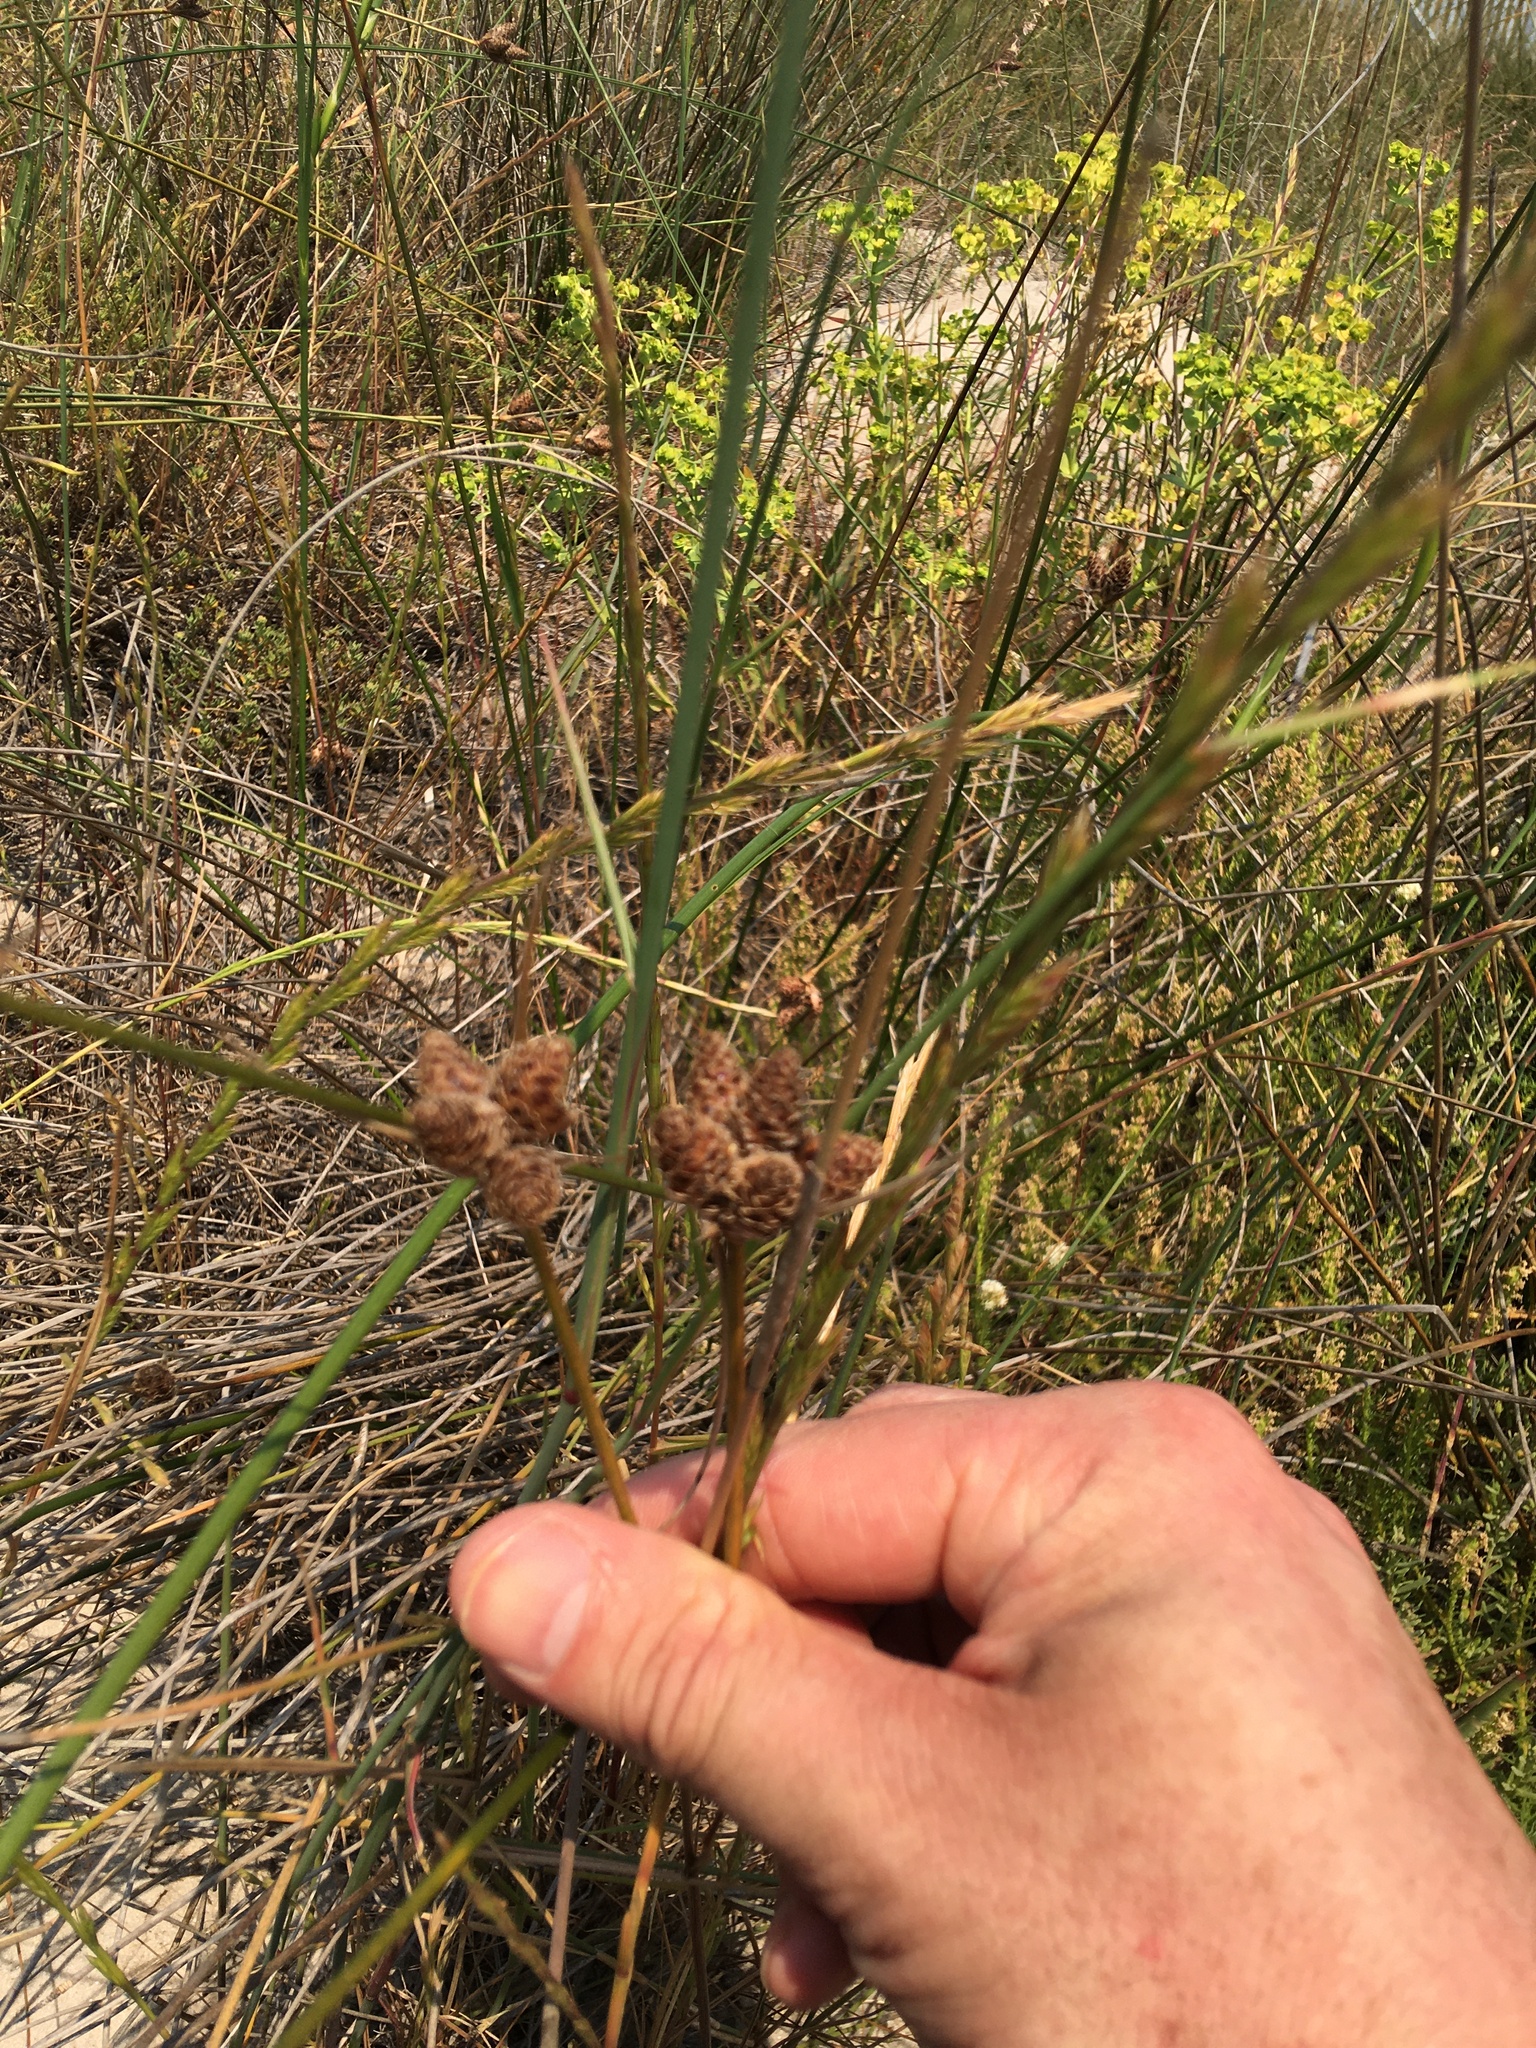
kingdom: Plantae
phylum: Tracheophyta
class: Liliopsida
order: Poales
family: Cyperaceae
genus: Carex
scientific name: Carex clavata
